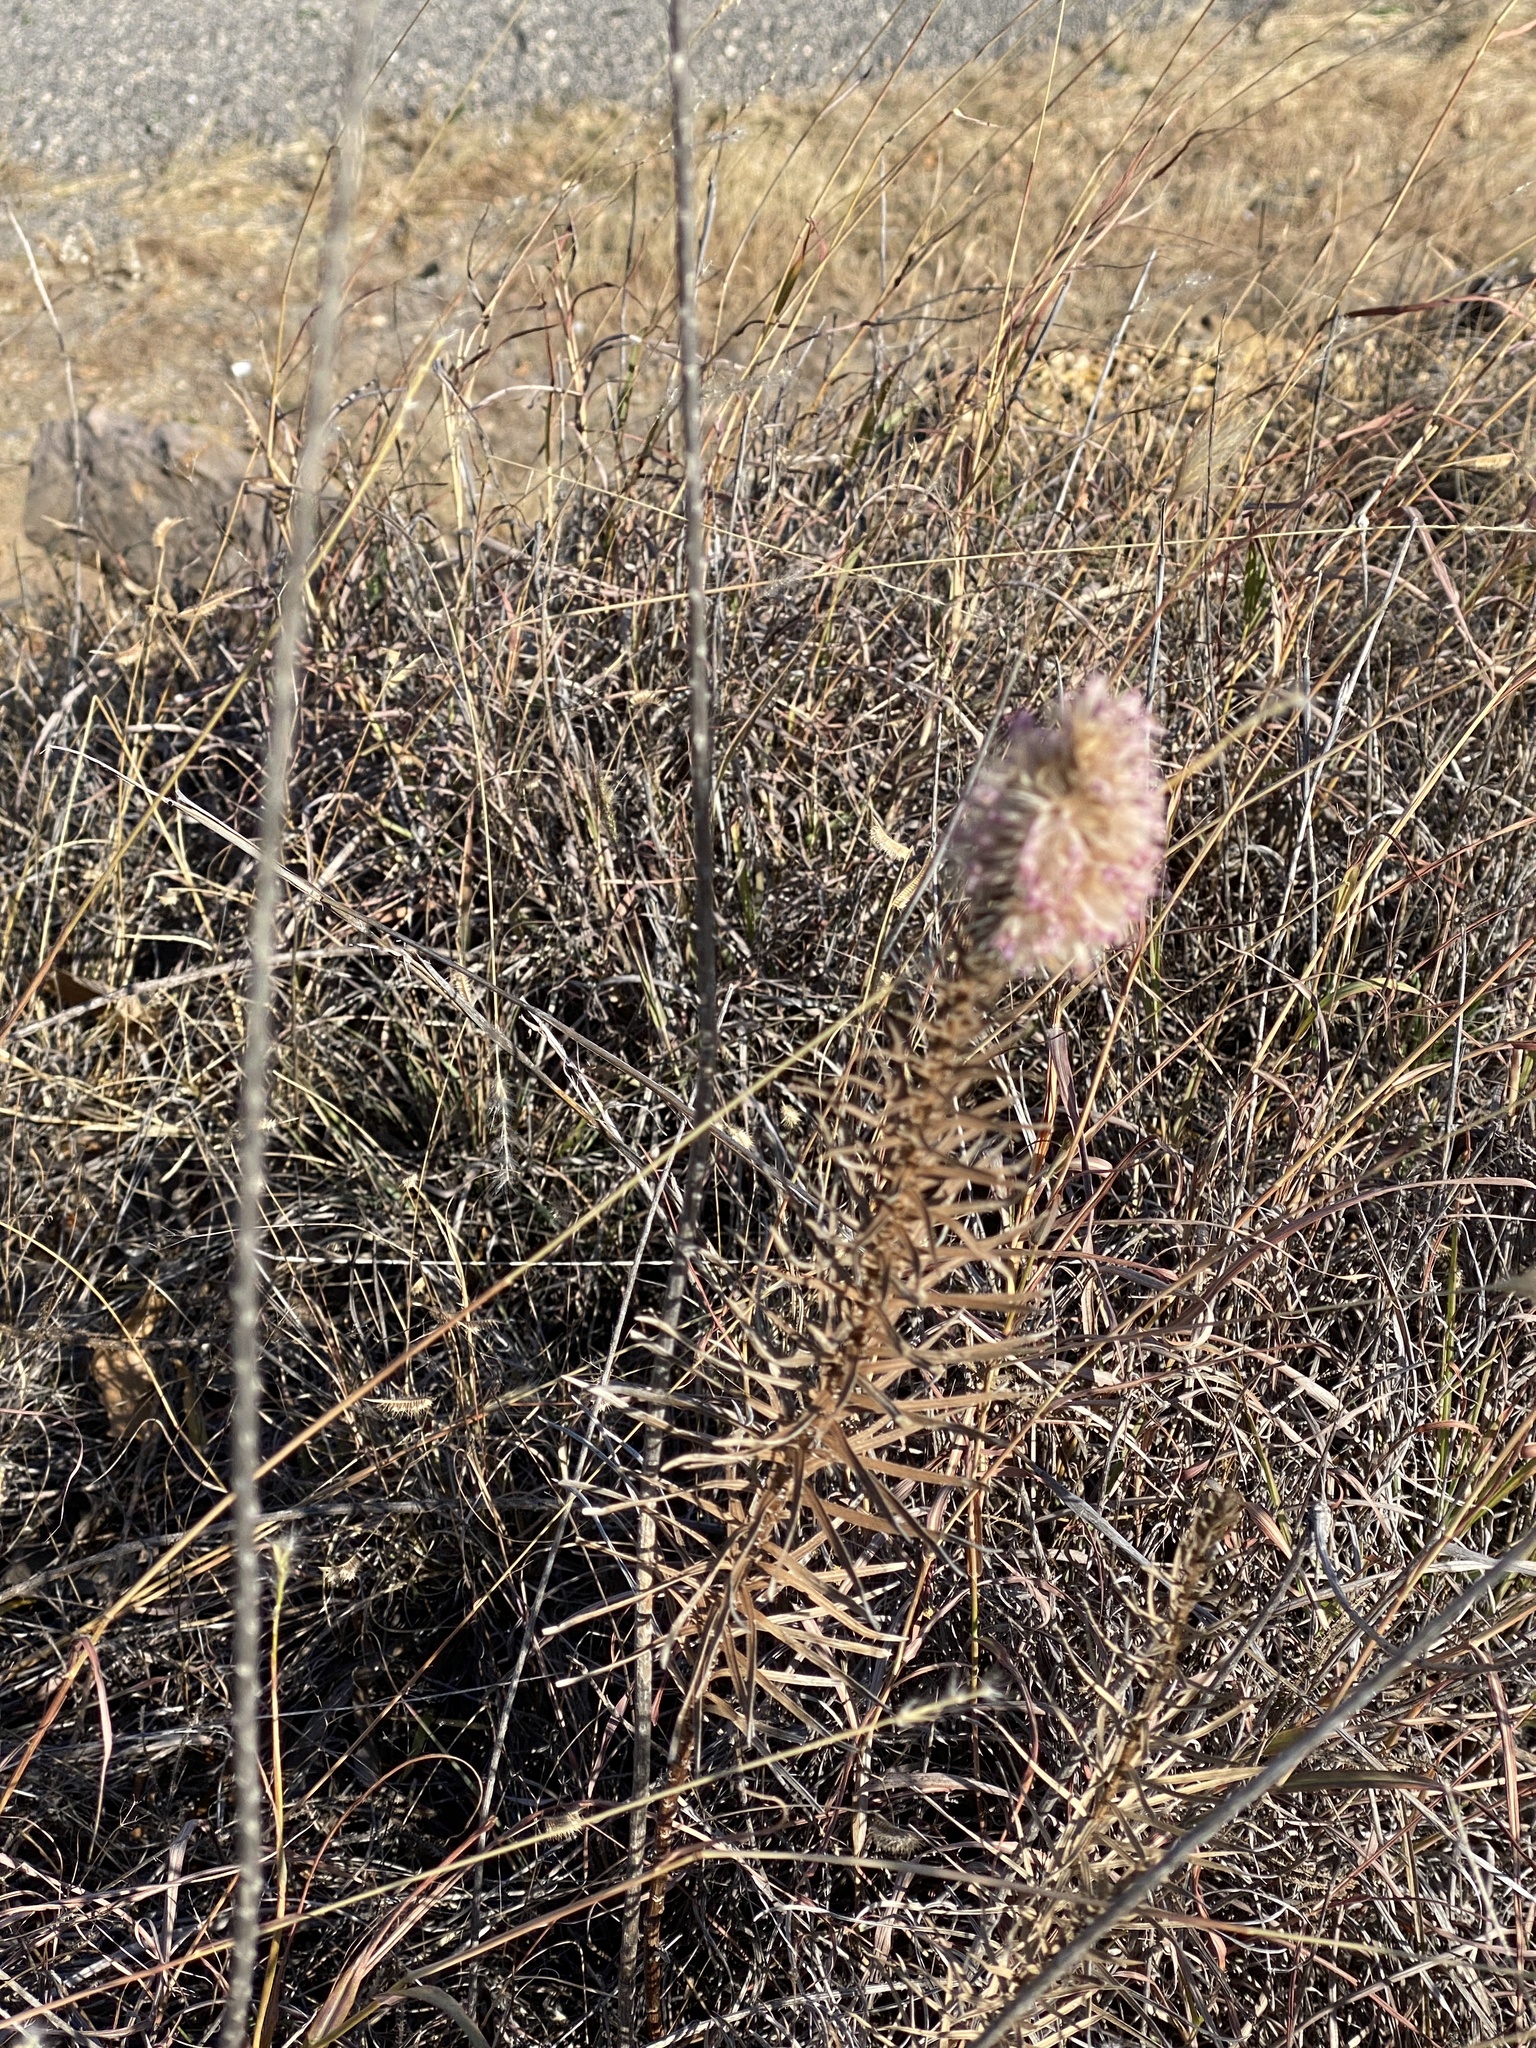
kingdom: Plantae
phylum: Tracheophyta
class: Magnoliopsida
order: Asterales
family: Asteraceae
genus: Liatris
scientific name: Liatris punctata
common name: Dotted gayfeather
